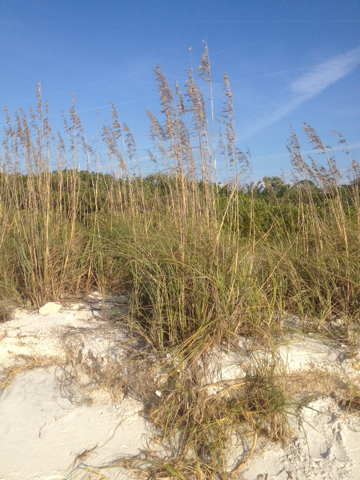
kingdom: Plantae
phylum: Tracheophyta
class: Liliopsida
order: Poales
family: Poaceae
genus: Uniola
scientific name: Uniola paniculata
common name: Seaside-oats
